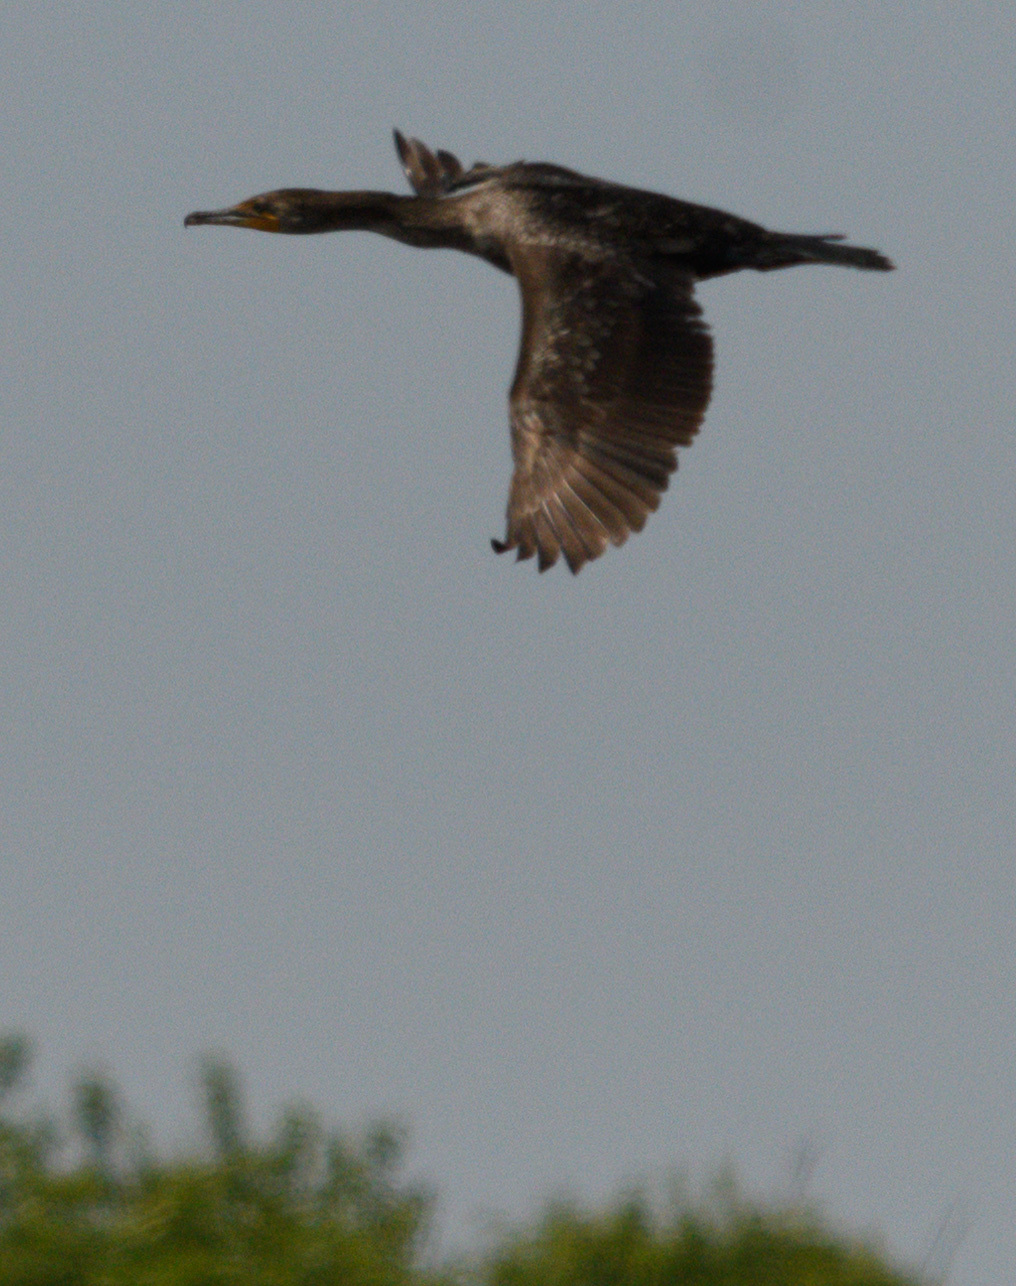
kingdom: Animalia
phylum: Chordata
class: Aves
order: Suliformes
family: Phalacrocoracidae
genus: Phalacrocorax
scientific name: Phalacrocorax auritus
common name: Double-crested cormorant
